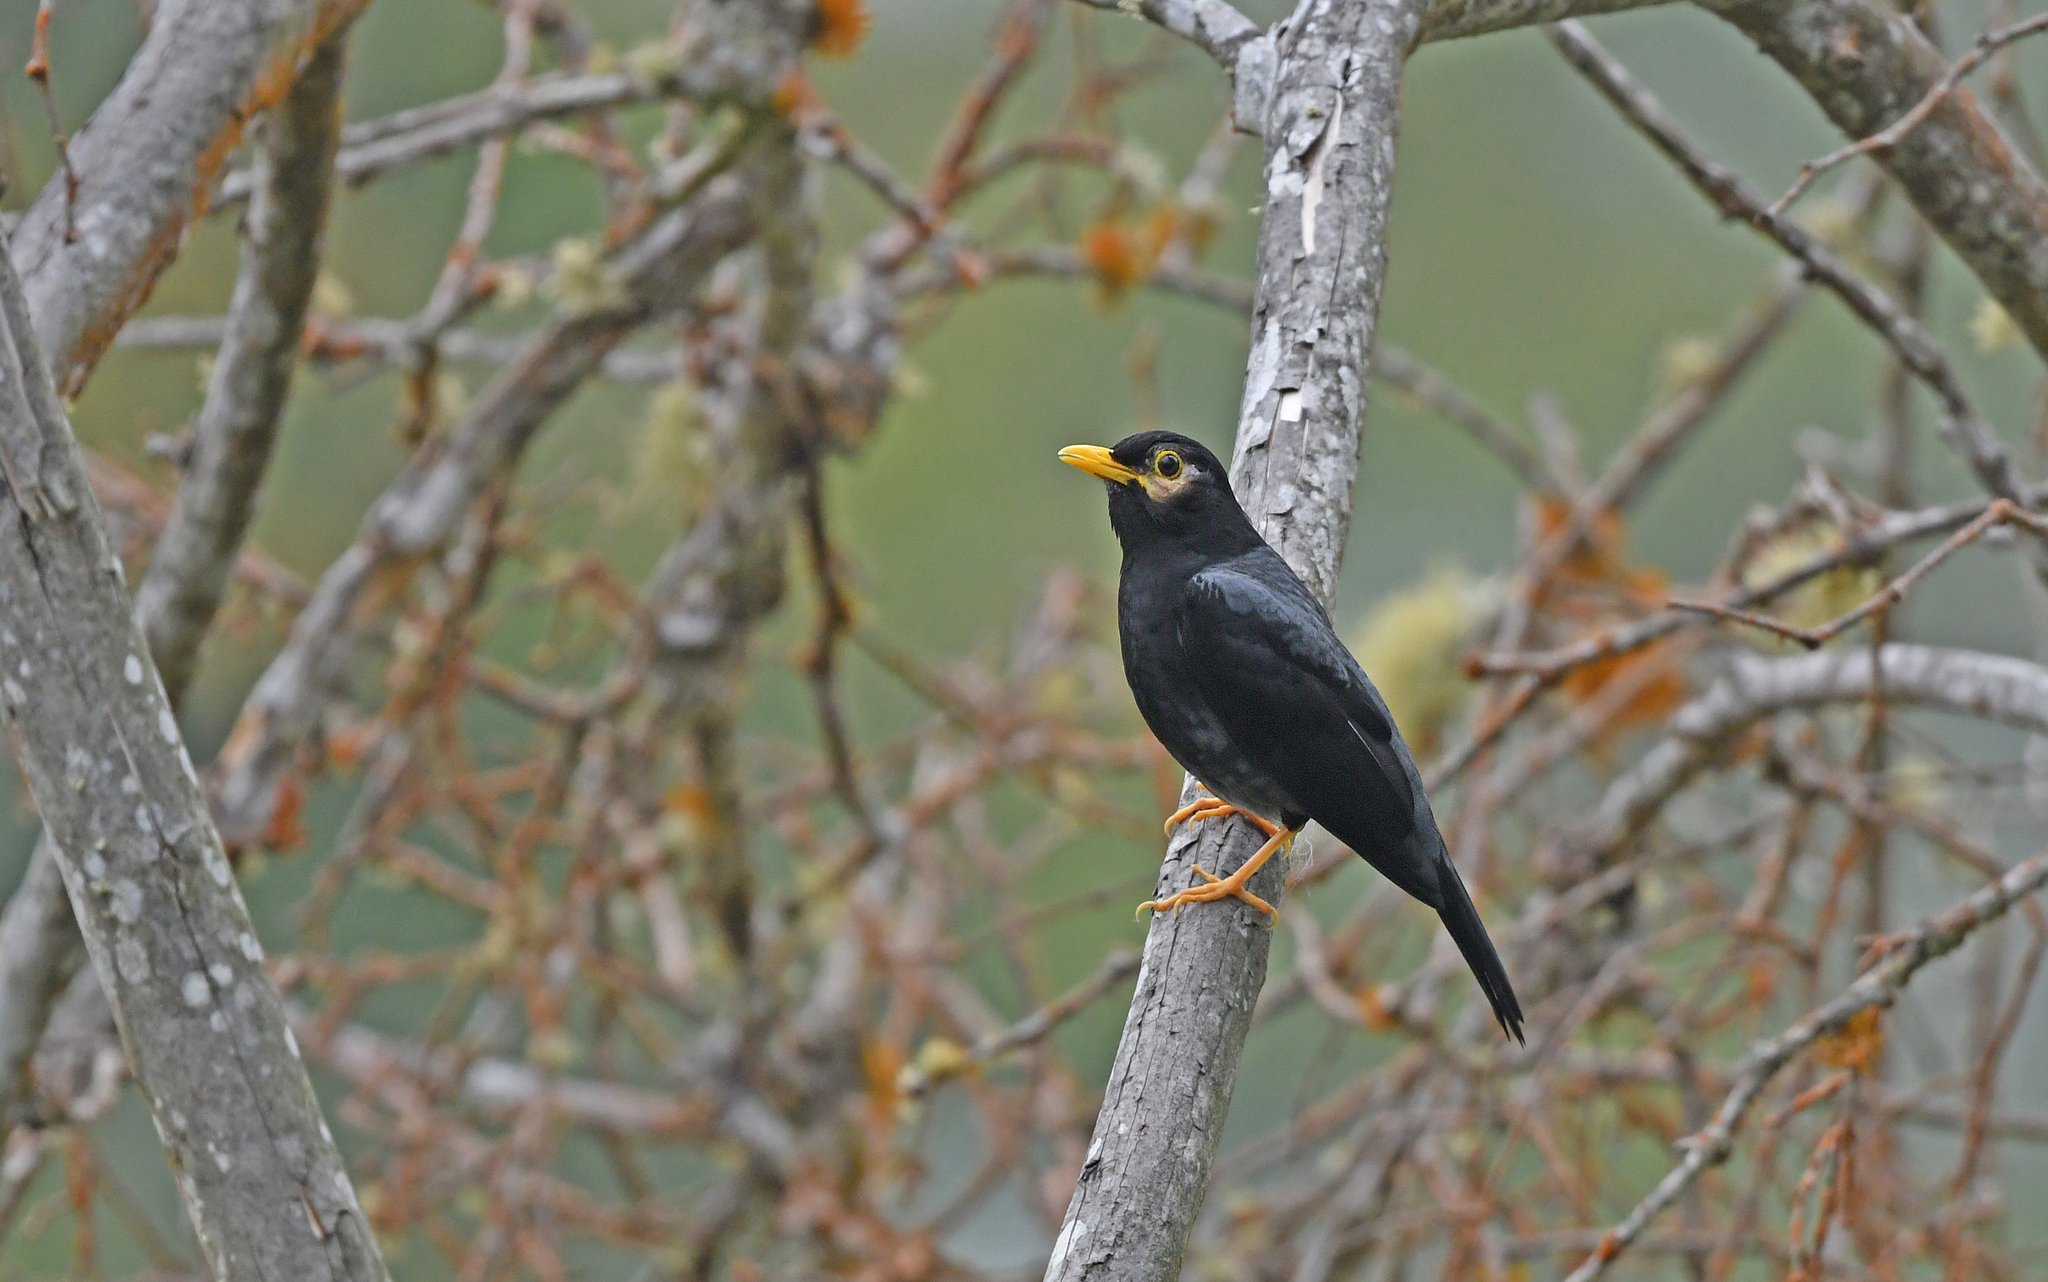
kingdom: Animalia
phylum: Chordata
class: Aves
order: Passeriformes
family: Turdidae
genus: Turdus
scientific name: Turdus flavipes
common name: Yellow-legged thrush
